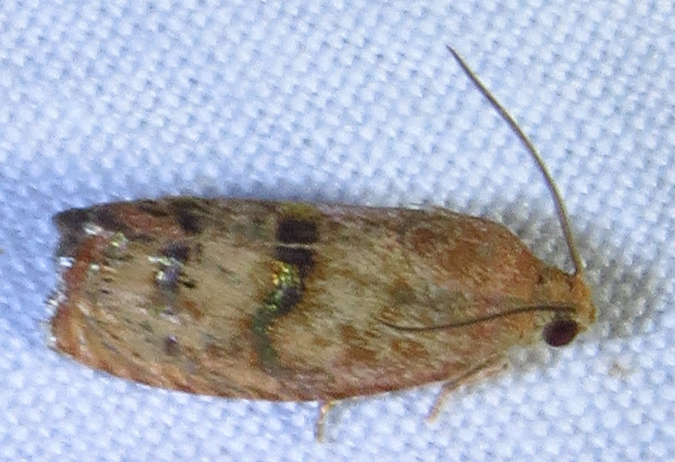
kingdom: Animalia
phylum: Arthropoda
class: Insecta
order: Lepidoptera
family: Tortricidae
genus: Cydia
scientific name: Cydia latiferreana
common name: Filbertworm moth
